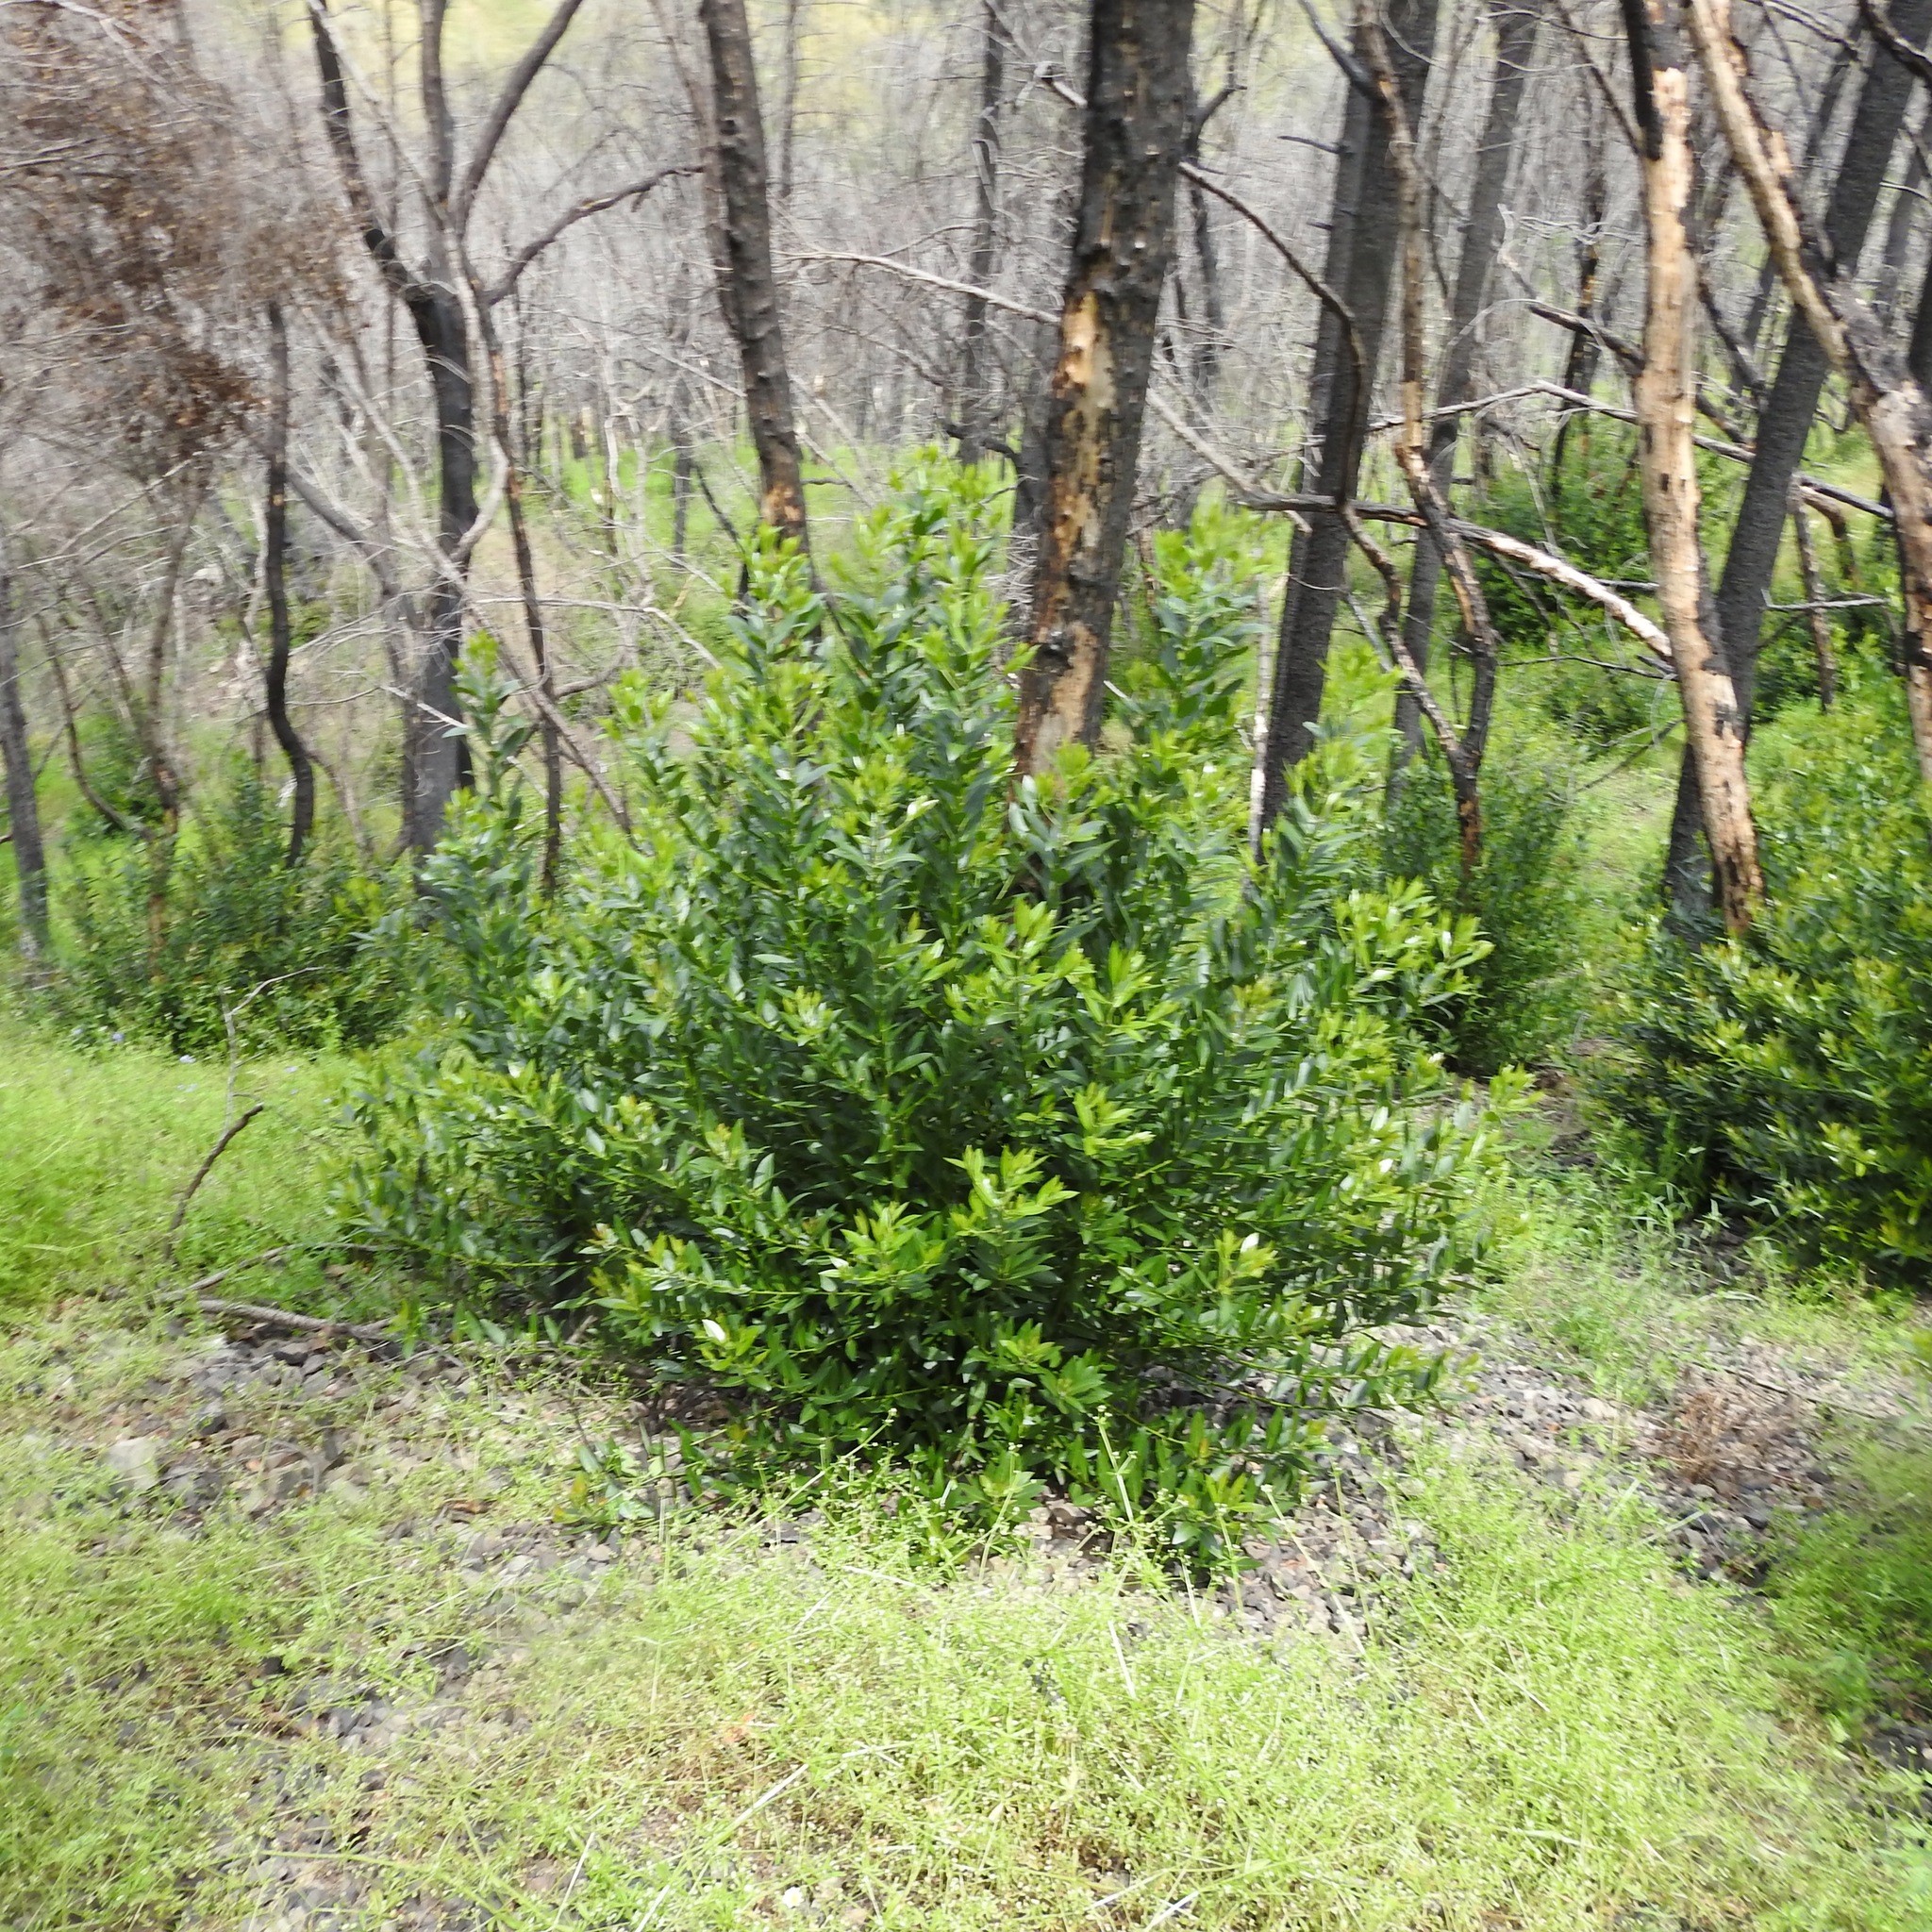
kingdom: Plantae
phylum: Tracheophyta
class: Magnoliopsida
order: Laurales
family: Lauraceae
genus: Umbellularia
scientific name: Umbellularia californica
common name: California bay
